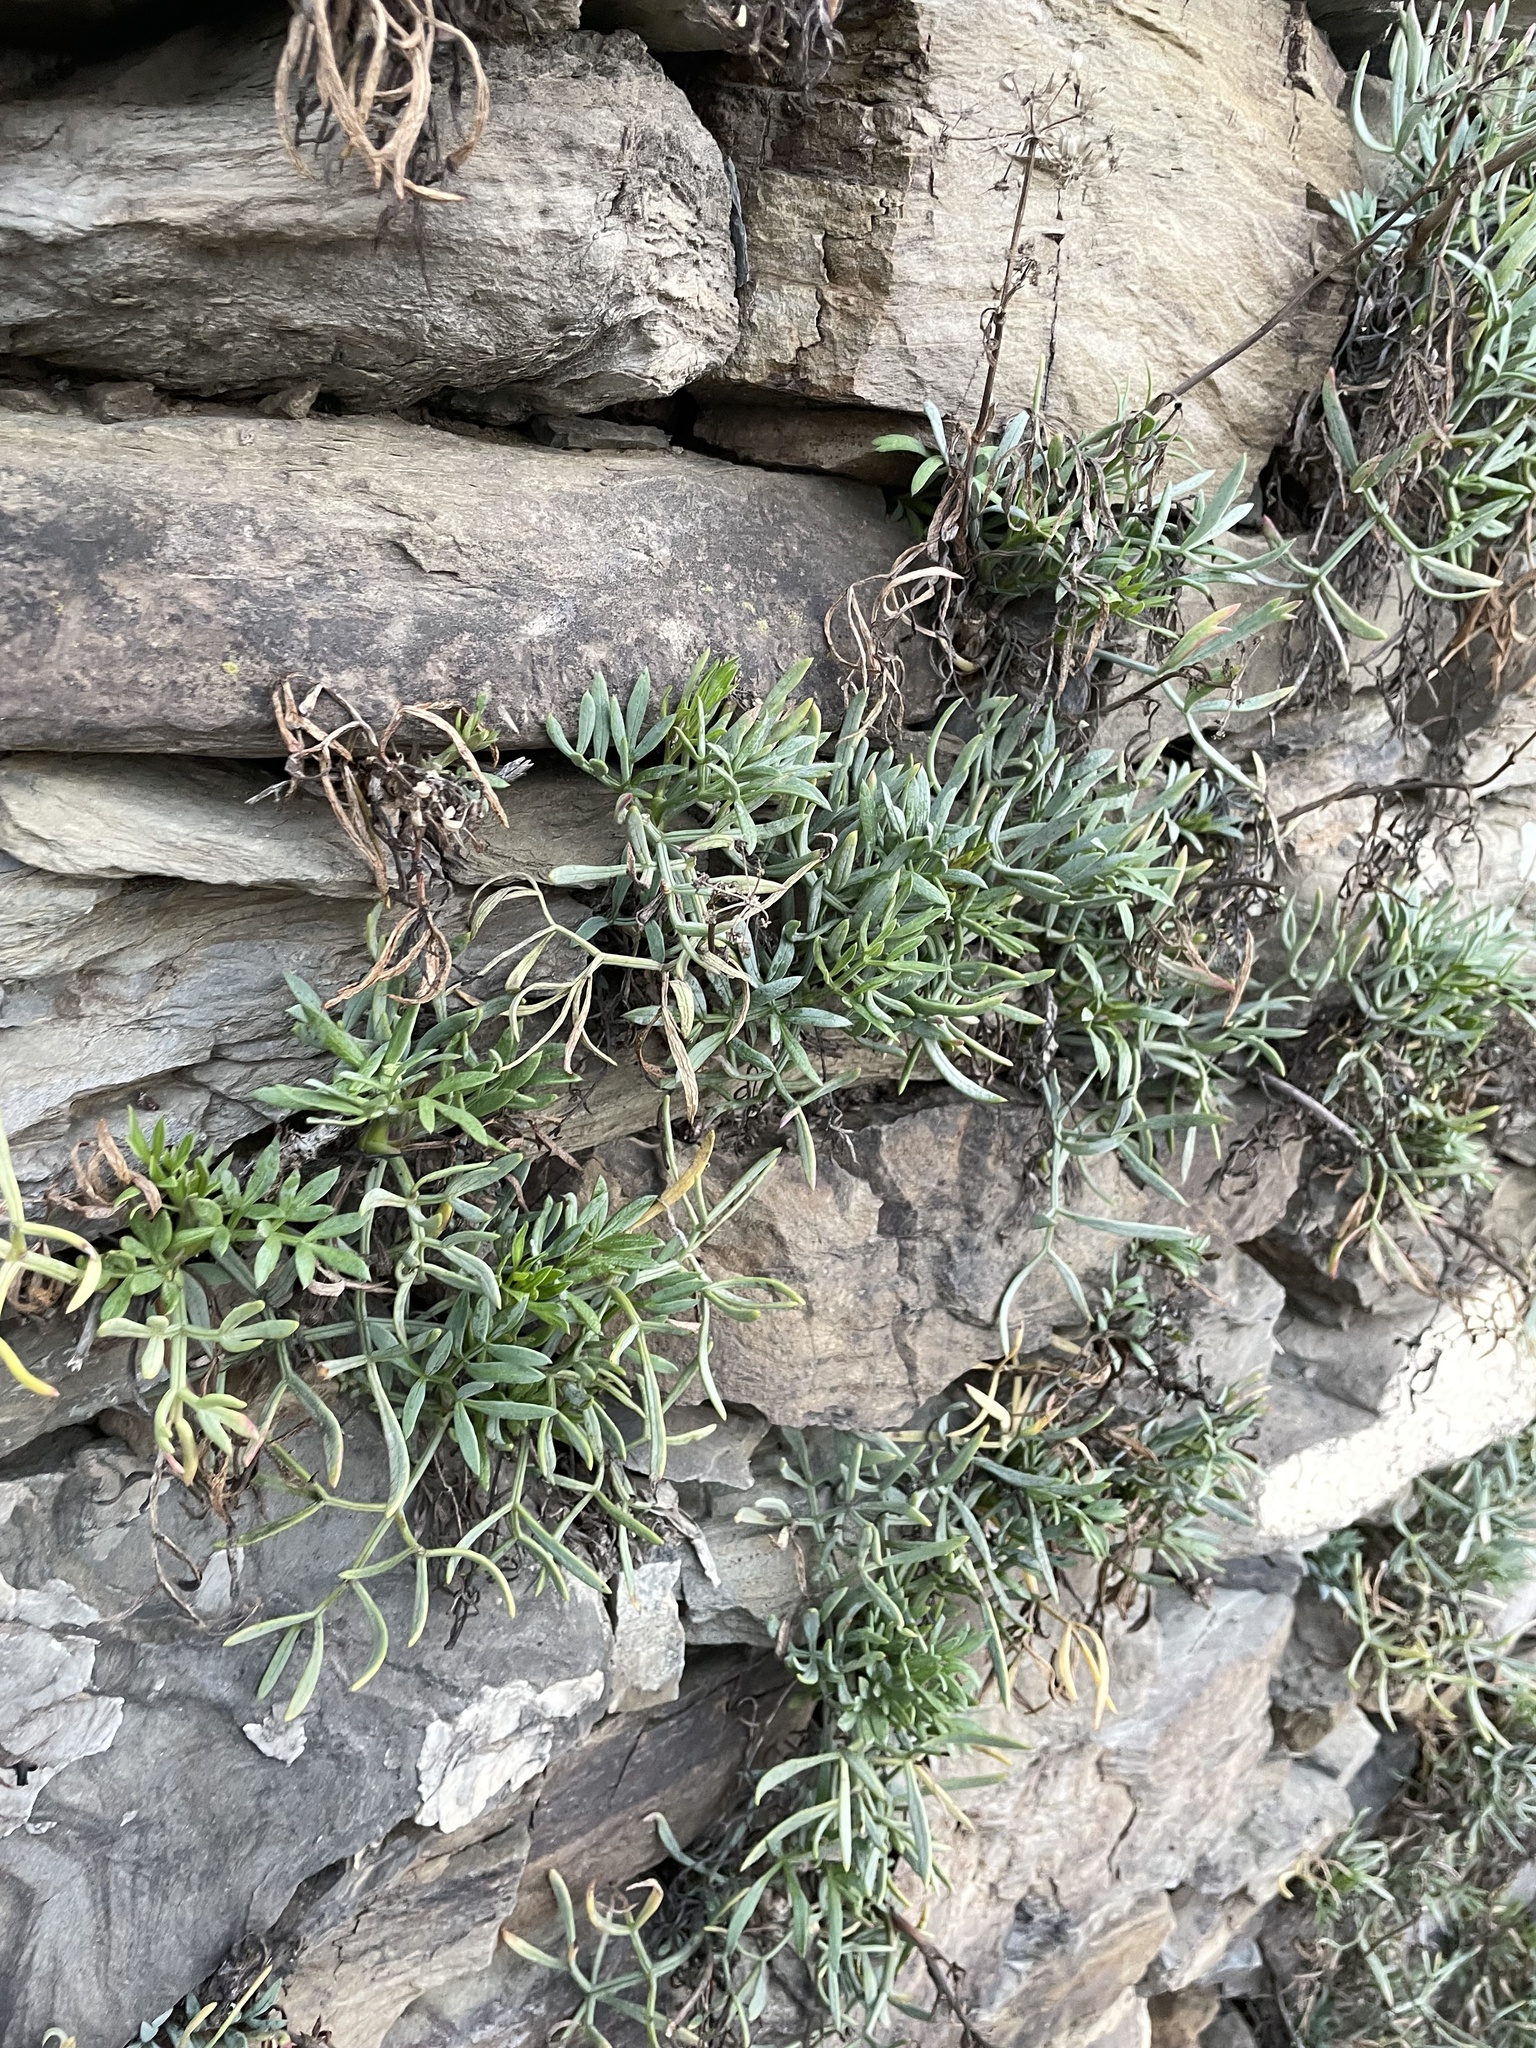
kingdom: Plantae
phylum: Tracheophyta
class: Magnoliopsida
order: Apiales
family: Apiaceae
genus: Crithmum
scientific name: Crithmum maritimum
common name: Rock samphire
